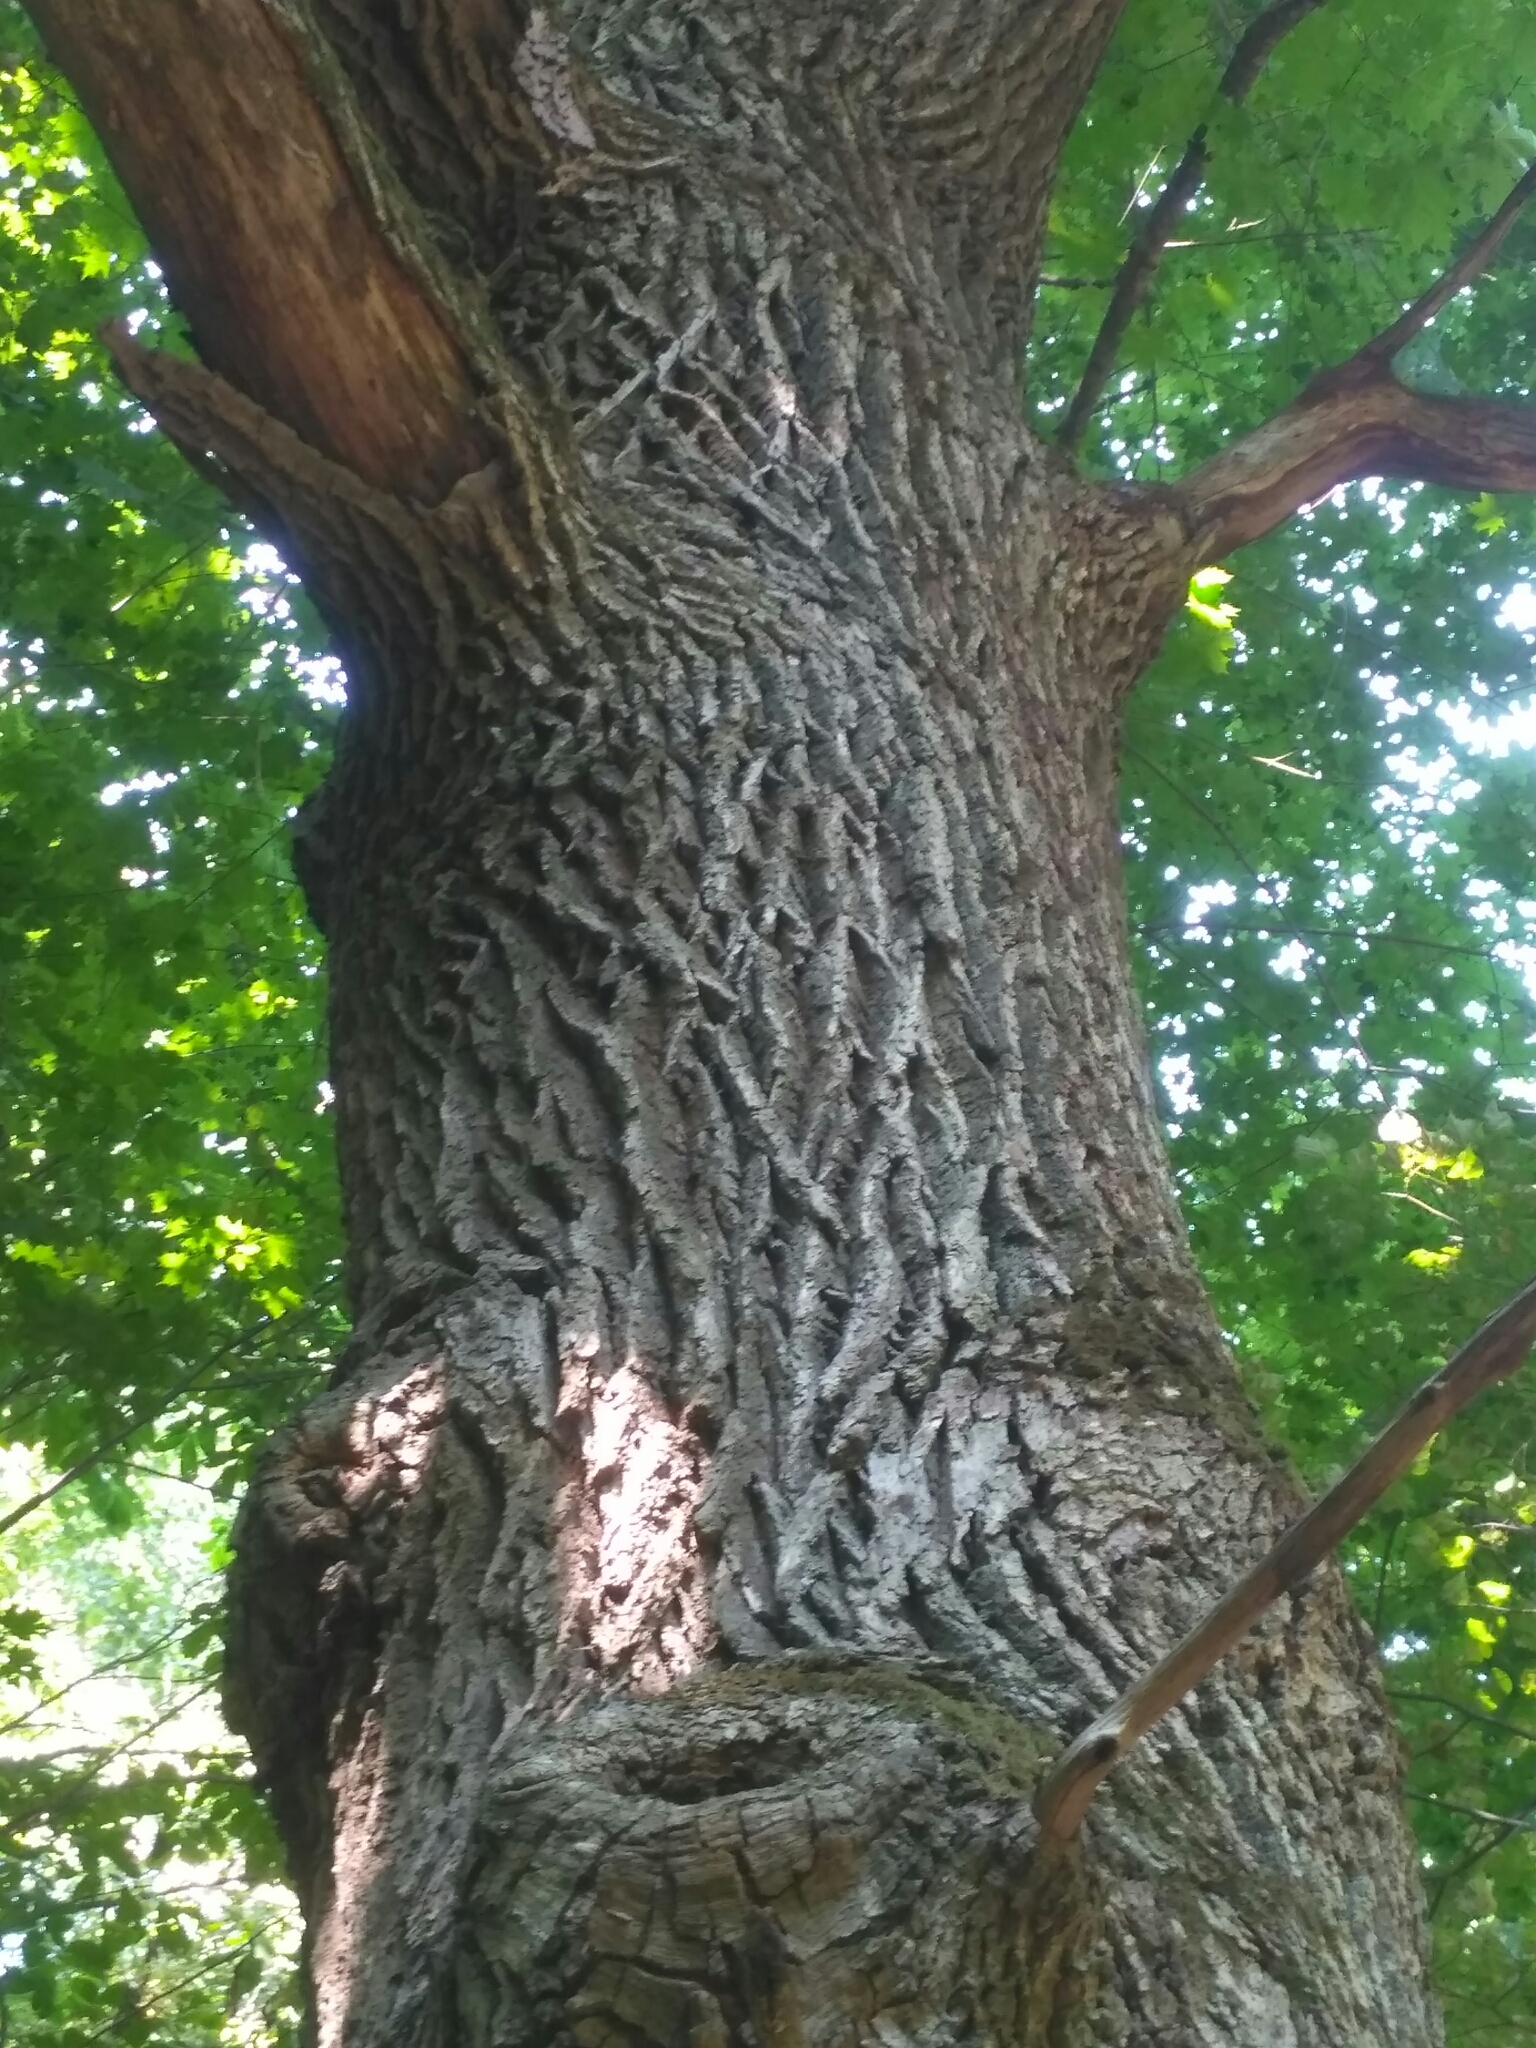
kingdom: Plantae
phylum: Tracheophyta
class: Magnoliopsida
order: Fagales
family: Fagaceae
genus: Quercus
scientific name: Quercus robur
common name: Pedunculate oak
